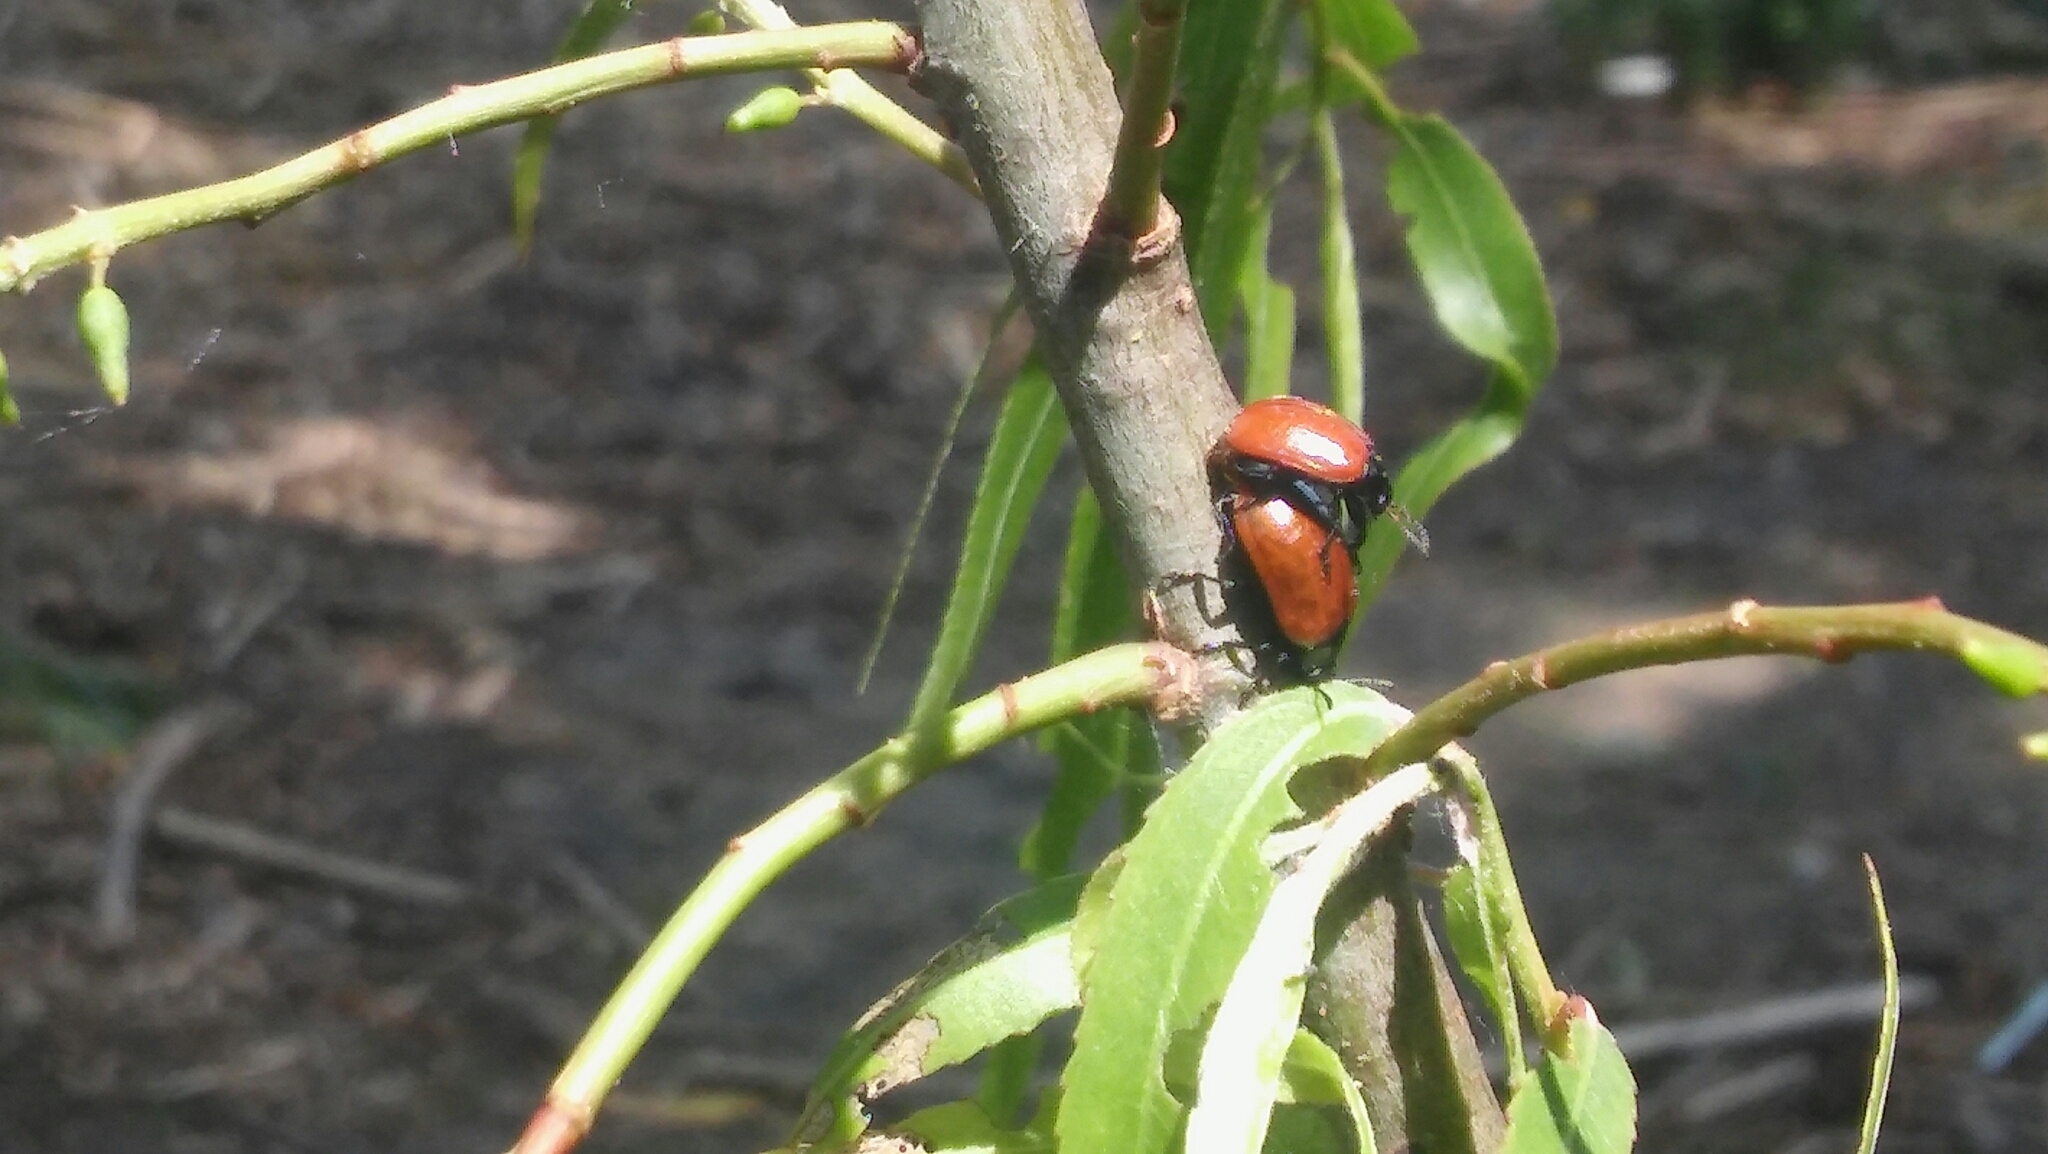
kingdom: Animalia
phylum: Arthropoda
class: Insecta
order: Coleoptera
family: Chrysomelidae
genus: Plagiodera
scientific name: Plagiodera
